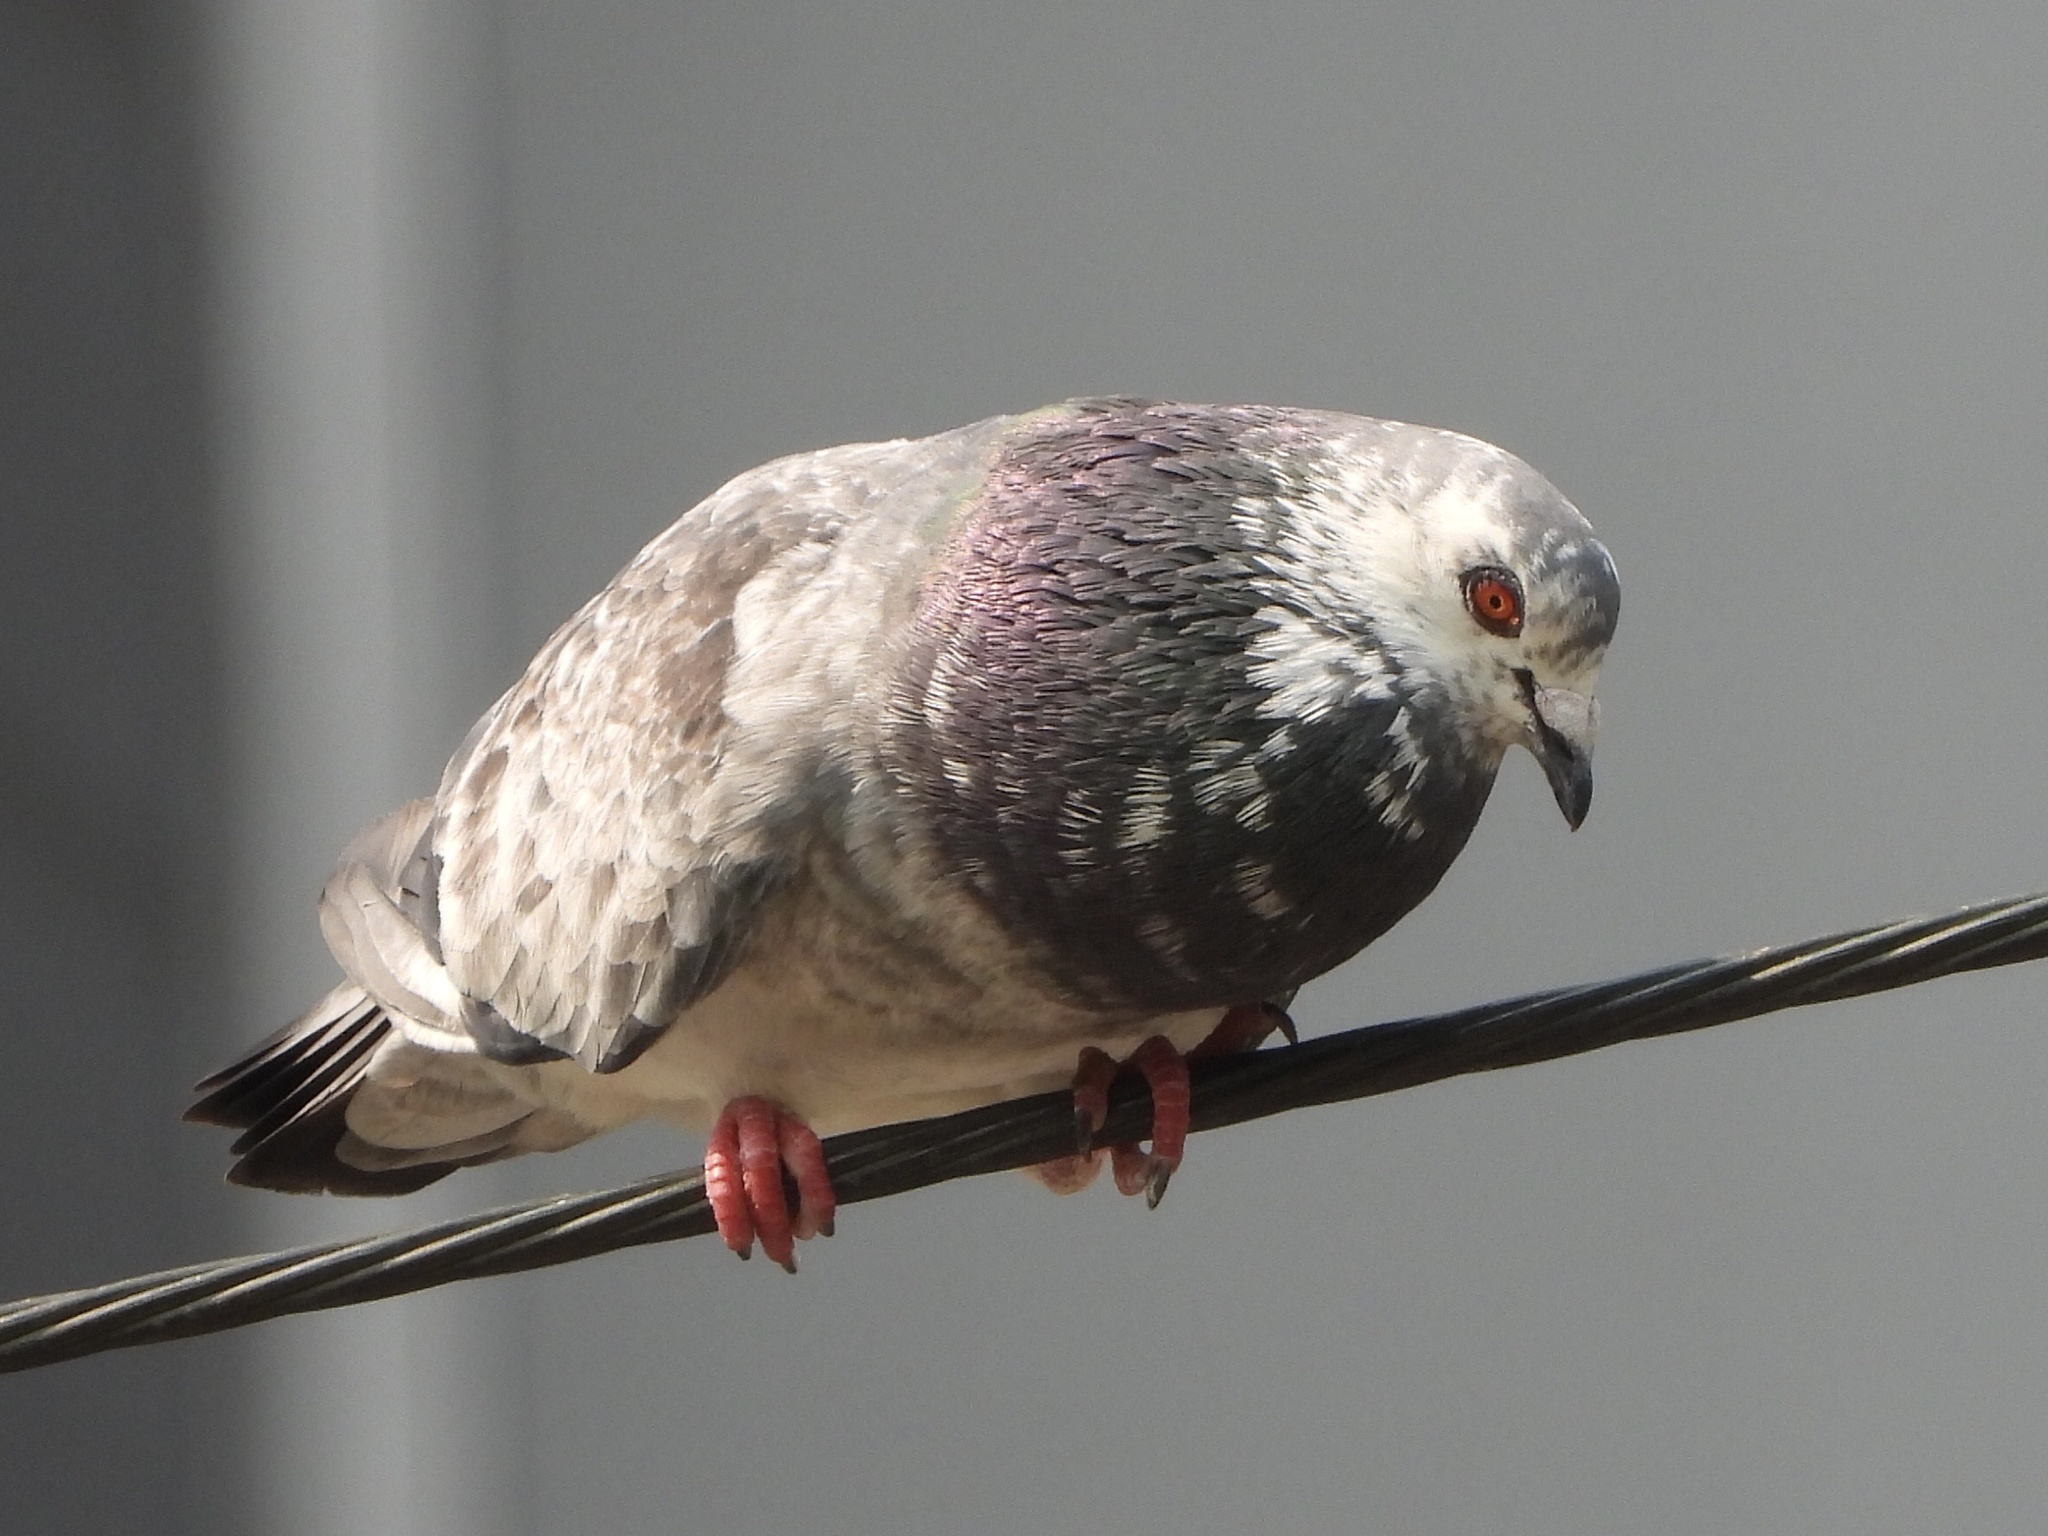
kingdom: Animalia
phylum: Chordata
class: Aves
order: Columbiformes
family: Columbidae
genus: Columba
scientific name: Columba livia
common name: Rock pigeon
